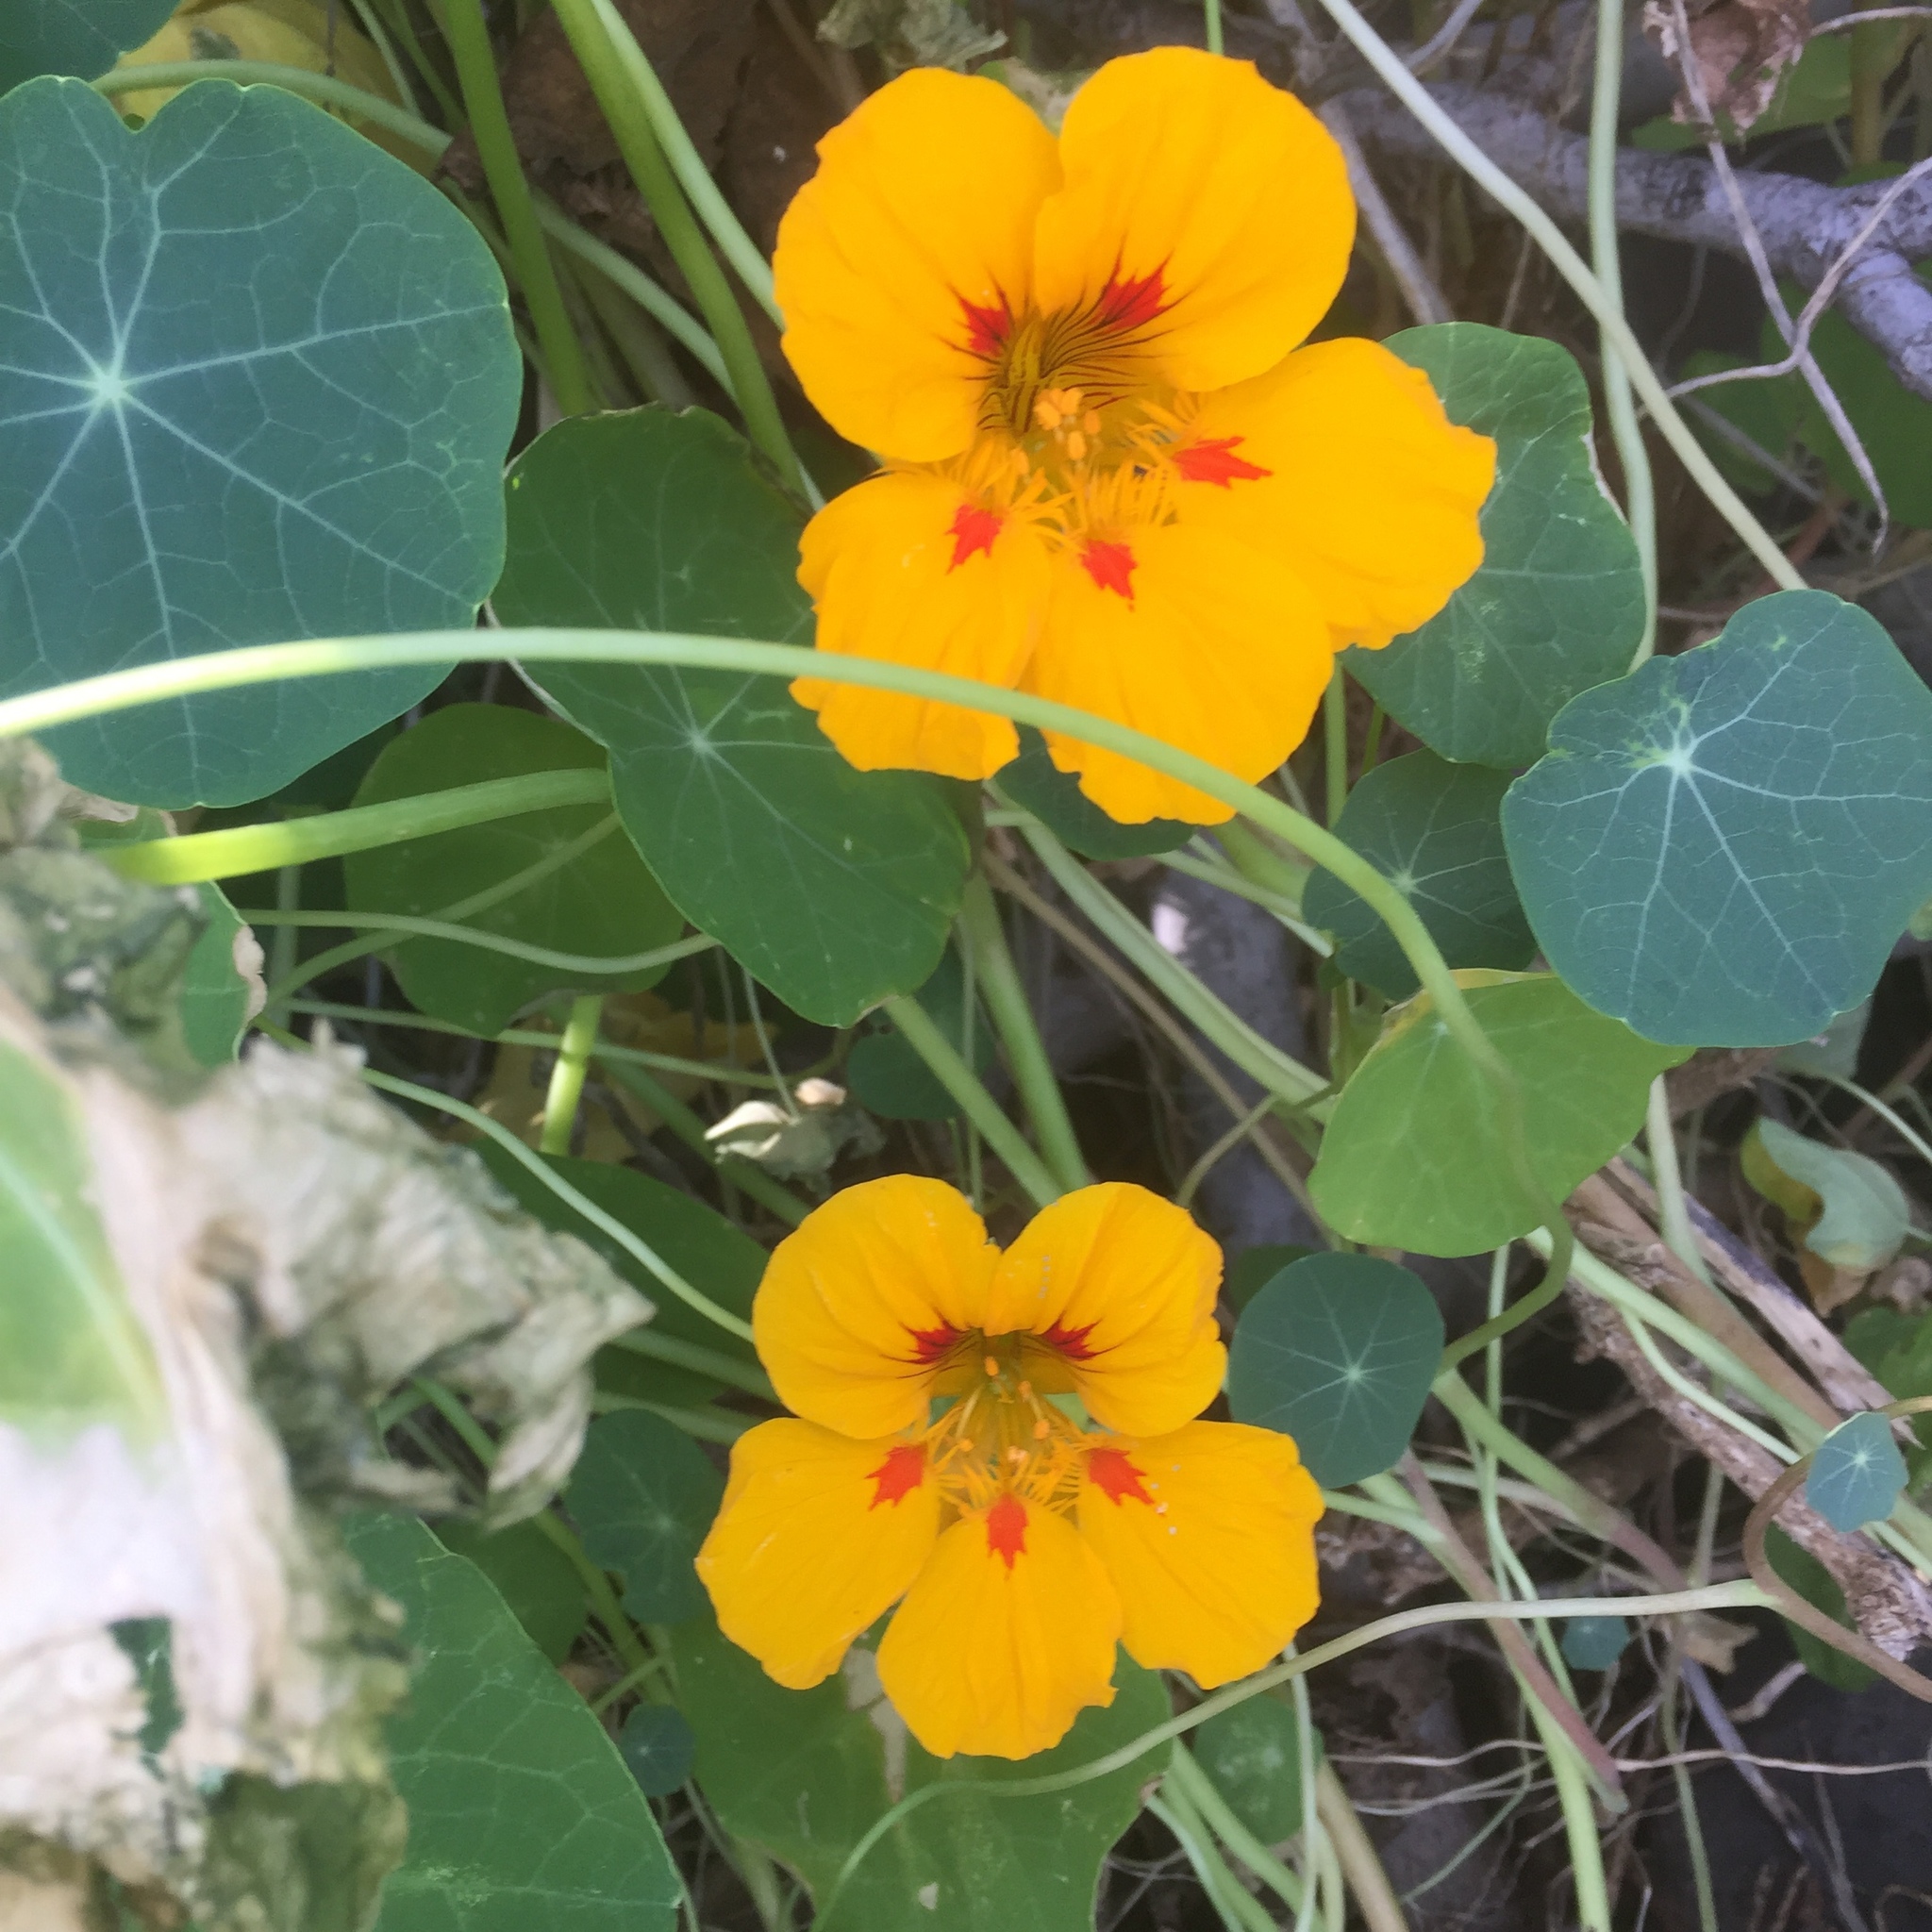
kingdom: Plantae
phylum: Tracheophyta
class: Magnoliopsida
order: Brassicales
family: Tropaeolaceae
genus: Tropaeolum
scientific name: Tropaeolum majus
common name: Nasturtium
